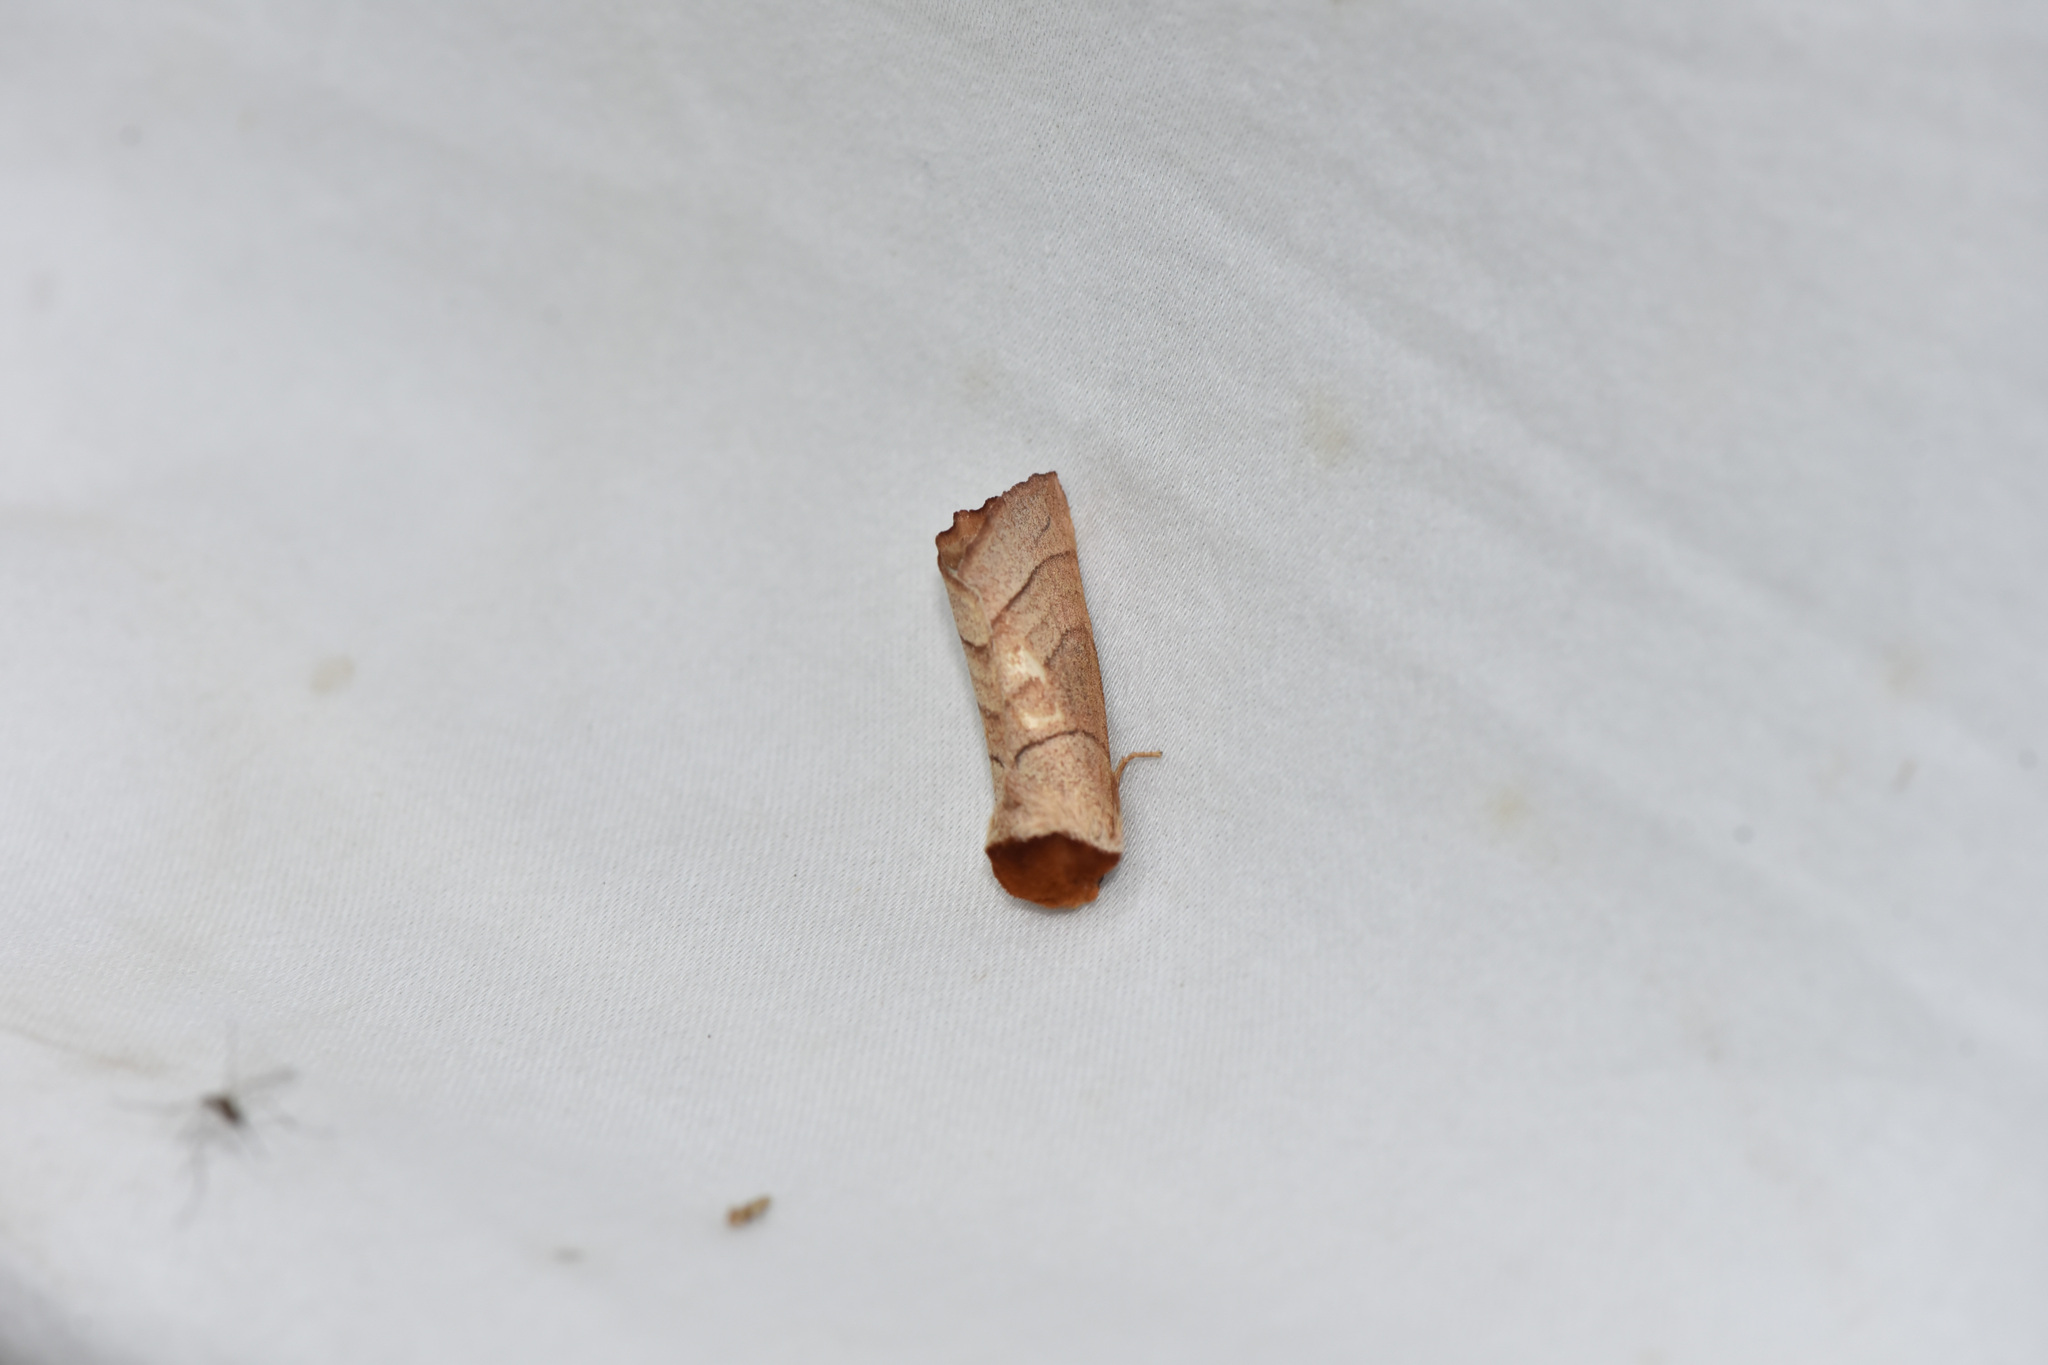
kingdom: Animalia
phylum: Arthropoda
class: Insecta
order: Lepidoptera
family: Notodontidae
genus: Datana
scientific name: Datana
